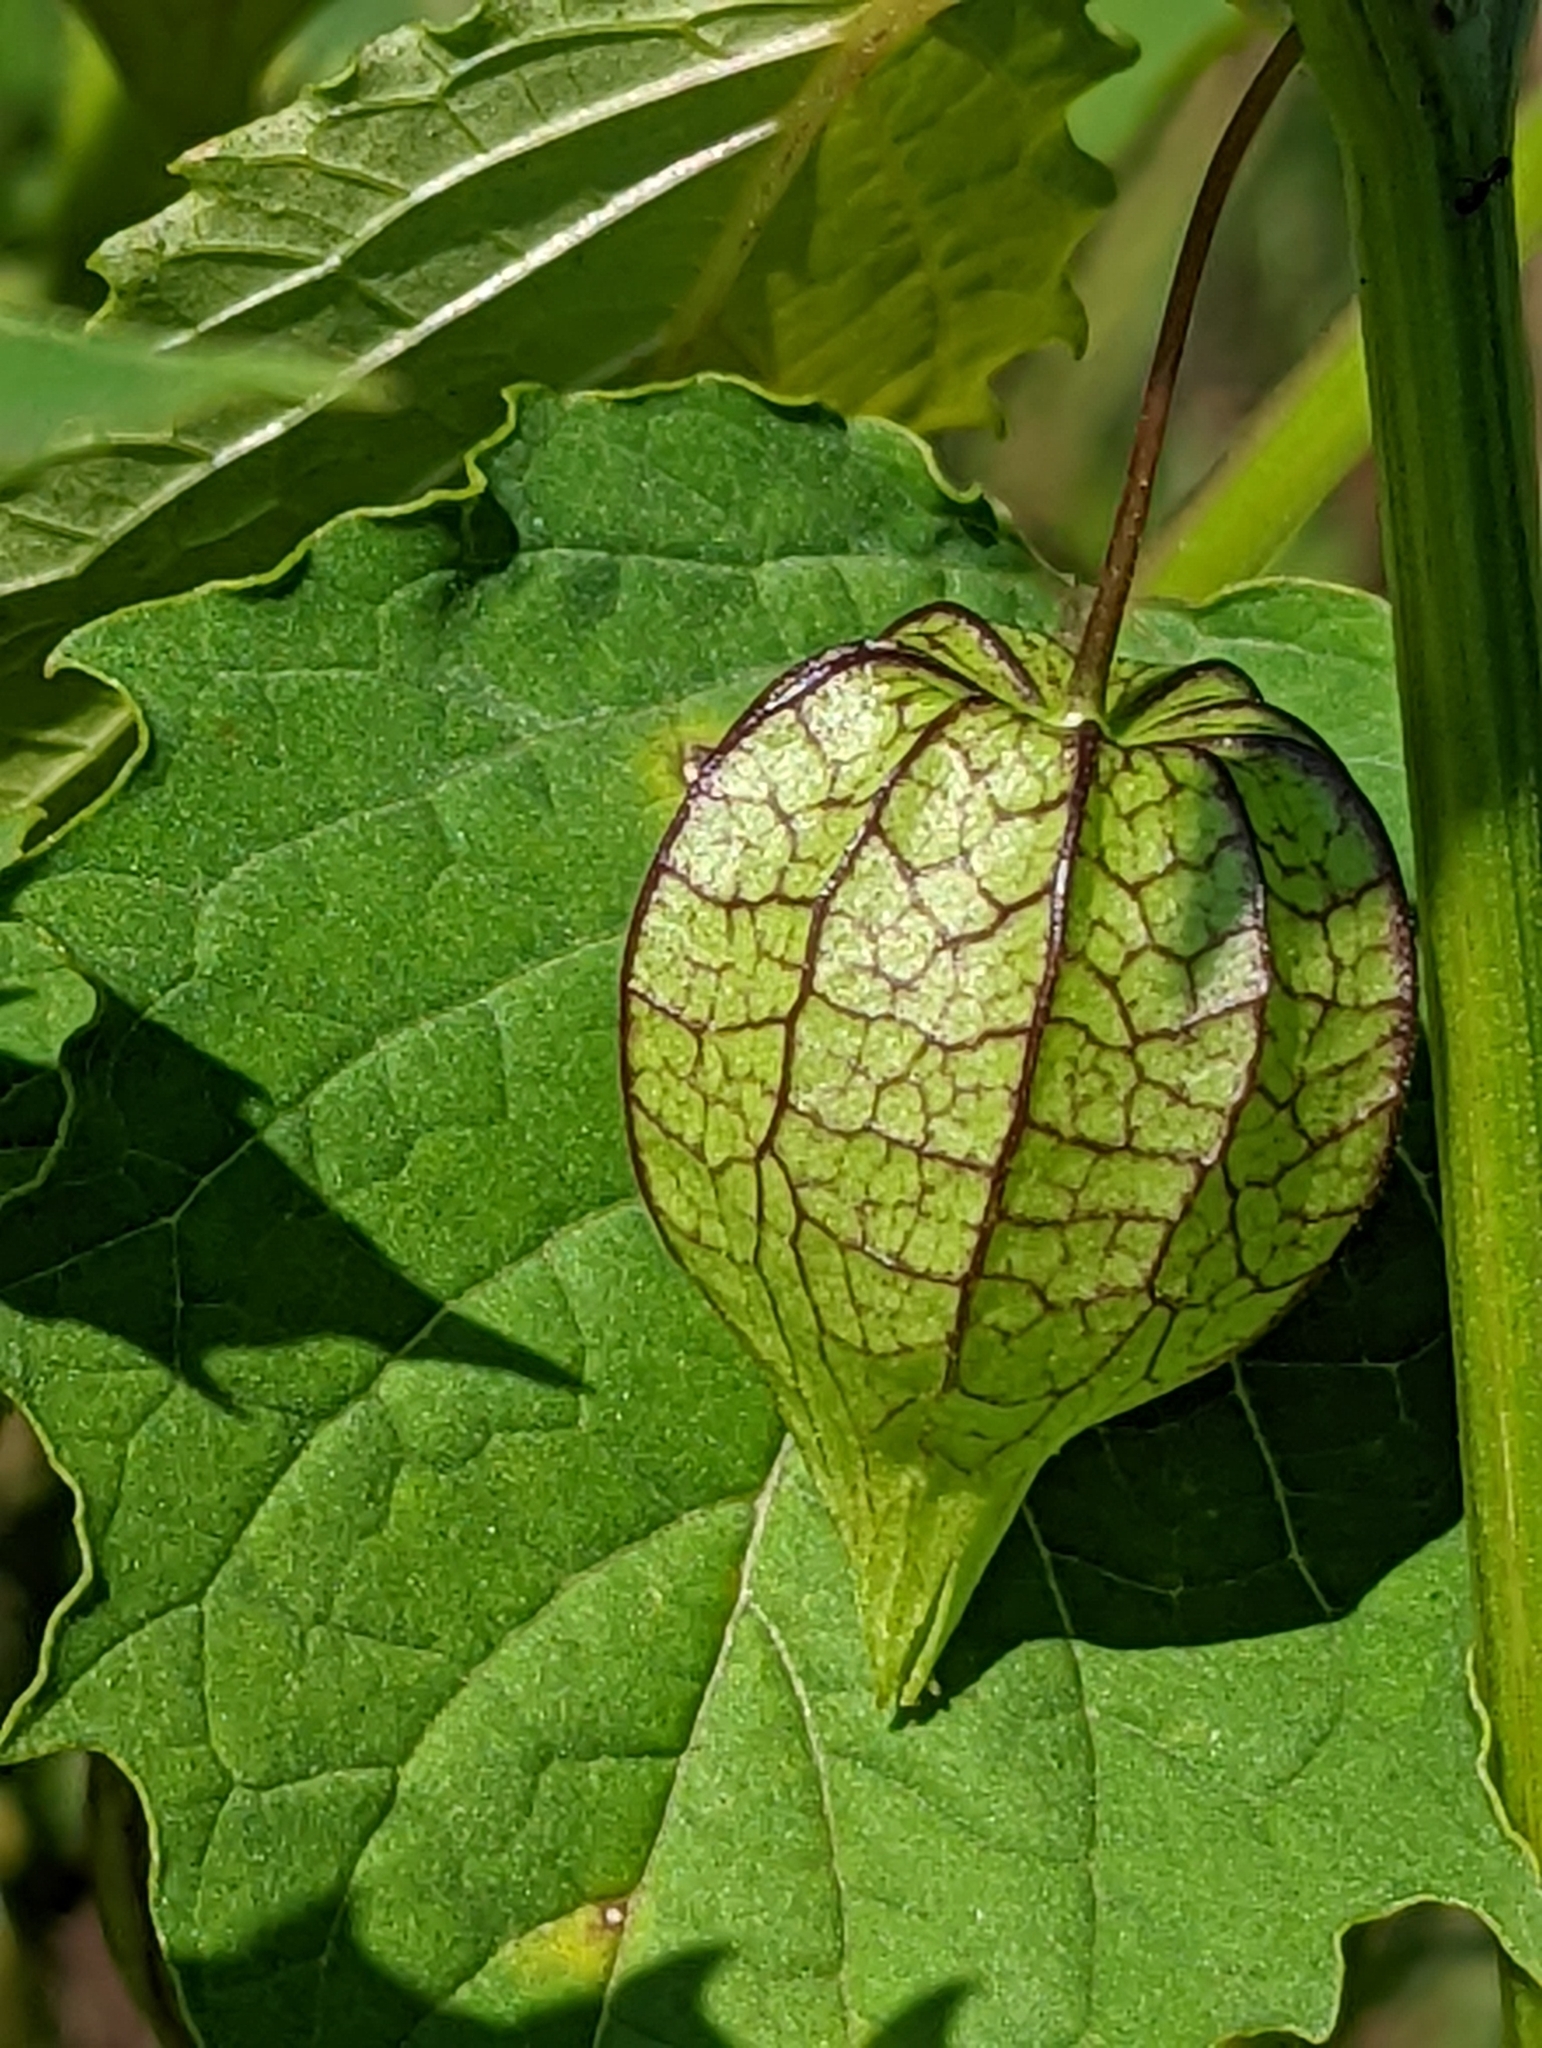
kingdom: Plantae
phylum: Tracheophyta
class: Magnoliopsida
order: Solanales
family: Solanaceae
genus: Physalis
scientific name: Physalis angulata
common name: Angular winter-cherry
